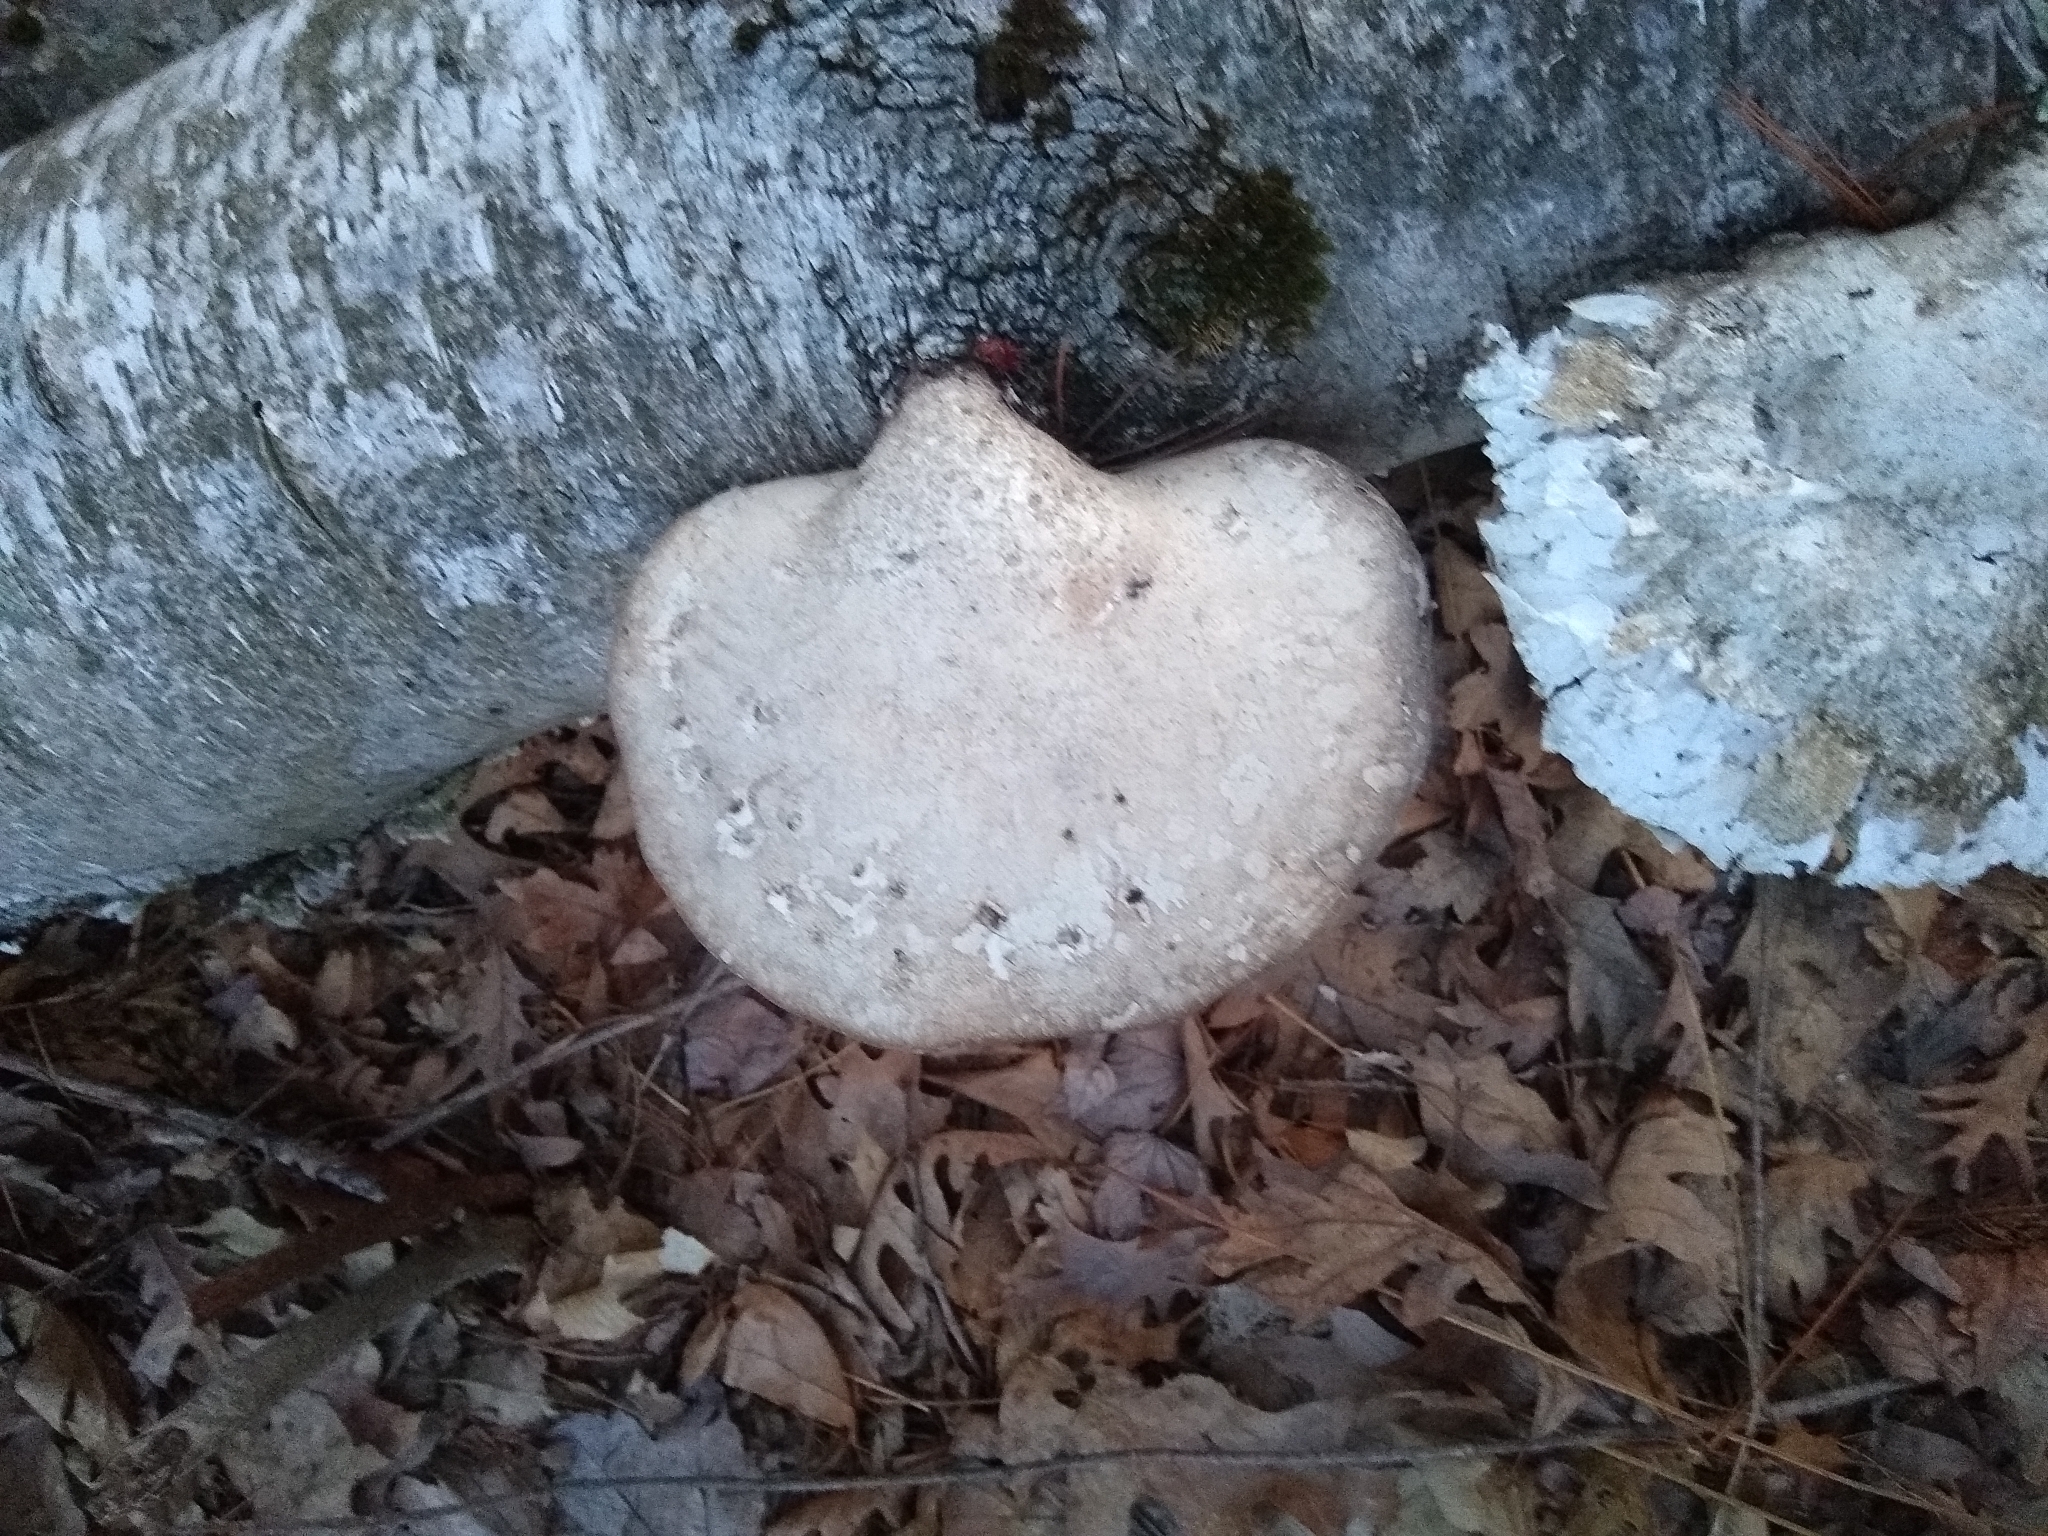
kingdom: Fungi
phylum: Basidiomycota
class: Agaricomycetes
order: Polyporales
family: Fomitopsidaceae
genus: Fomitopsis
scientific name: Fomitopsis betulina
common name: Birch polypore
